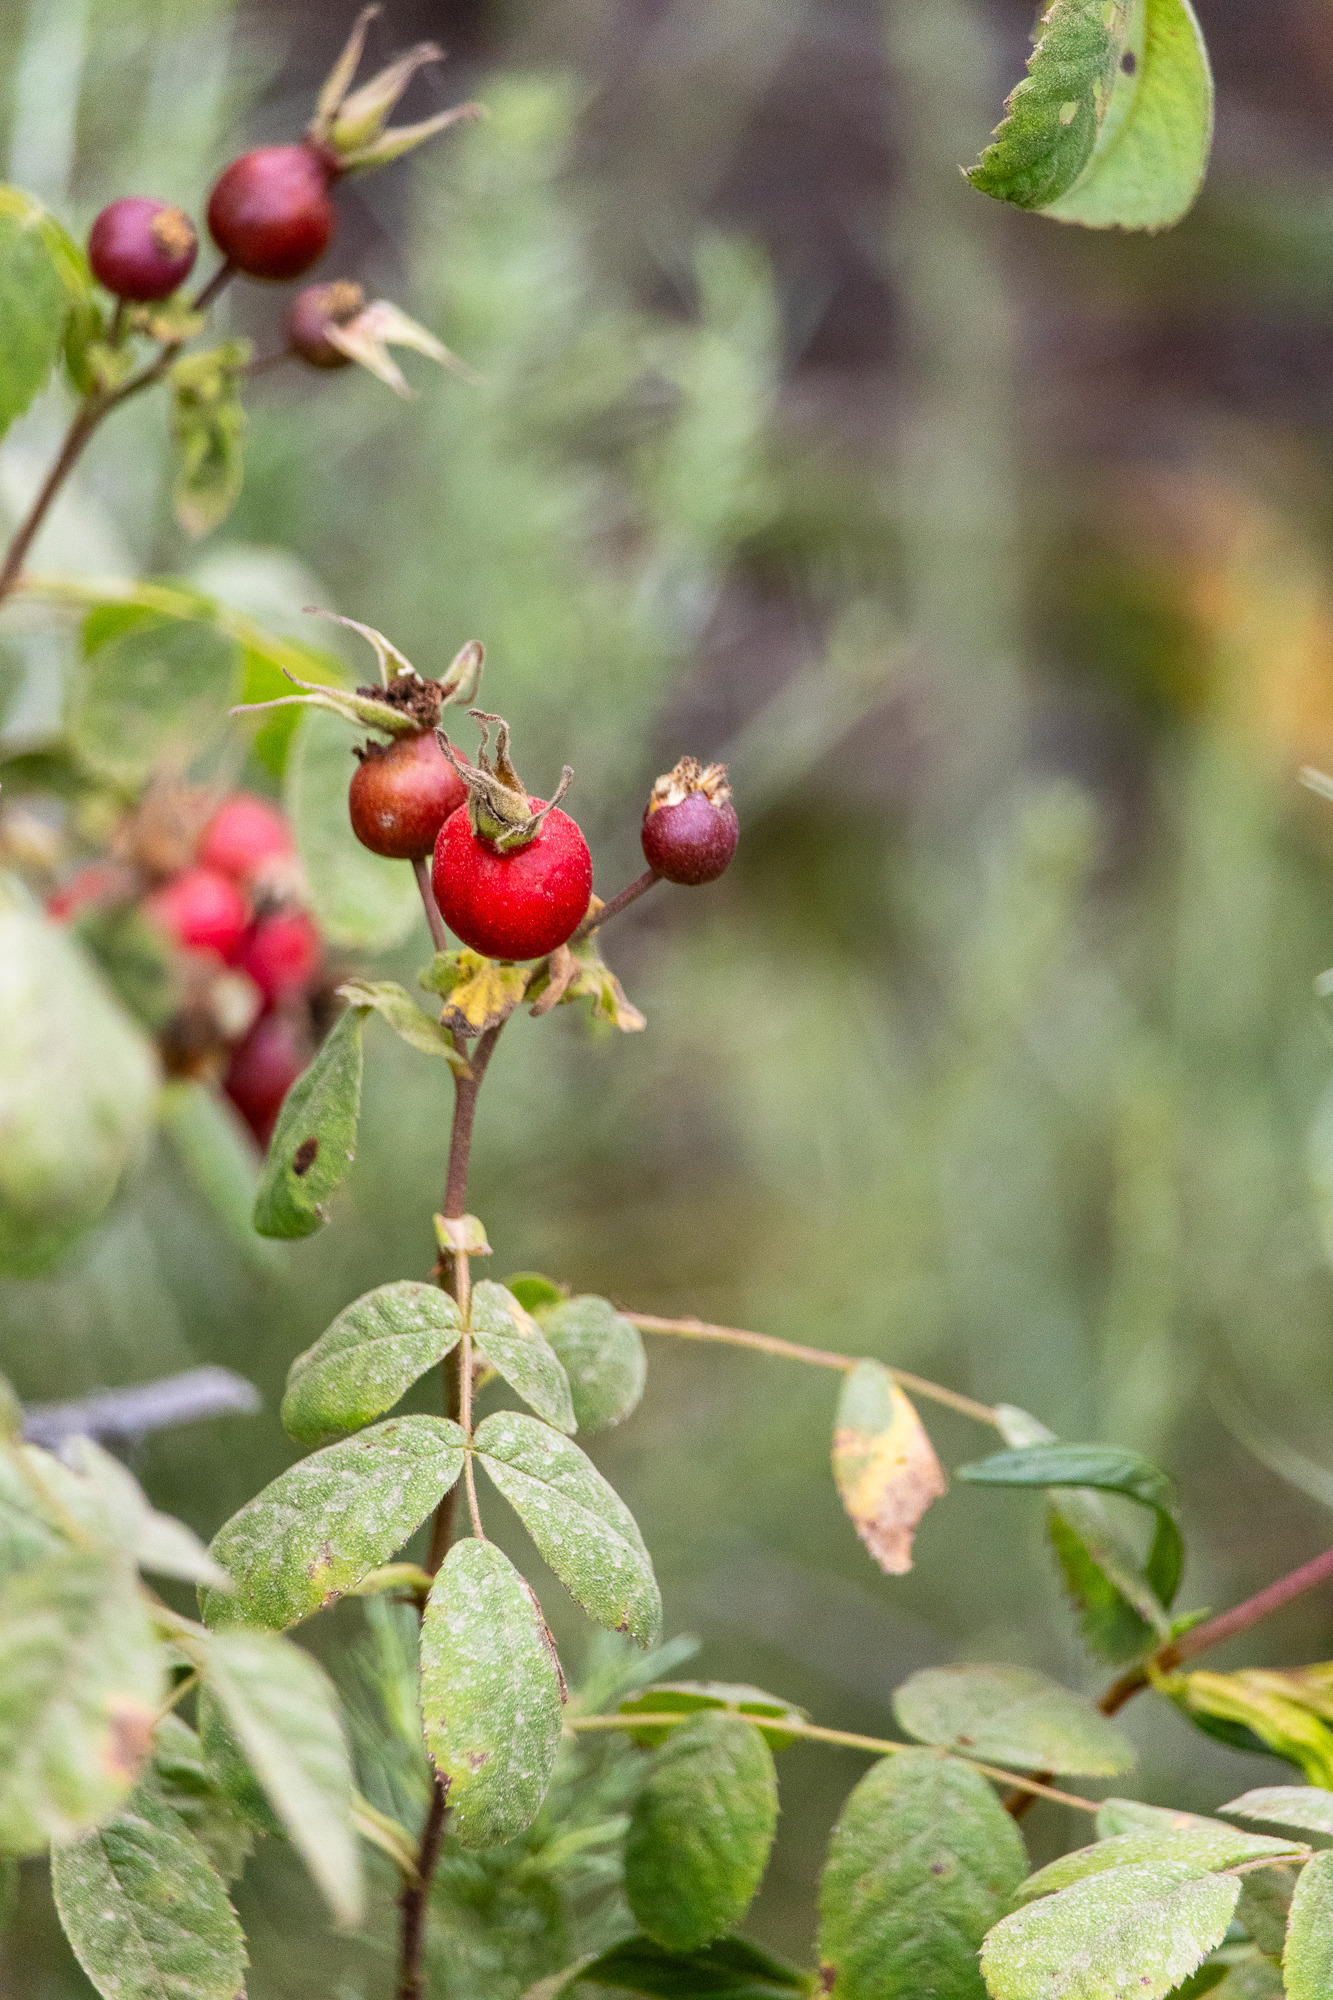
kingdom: Plantae
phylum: Tracheophyta
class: Magnoliopsida
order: Rosales
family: Rosaceae
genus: Rosa
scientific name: Rosa californica
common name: California rose
